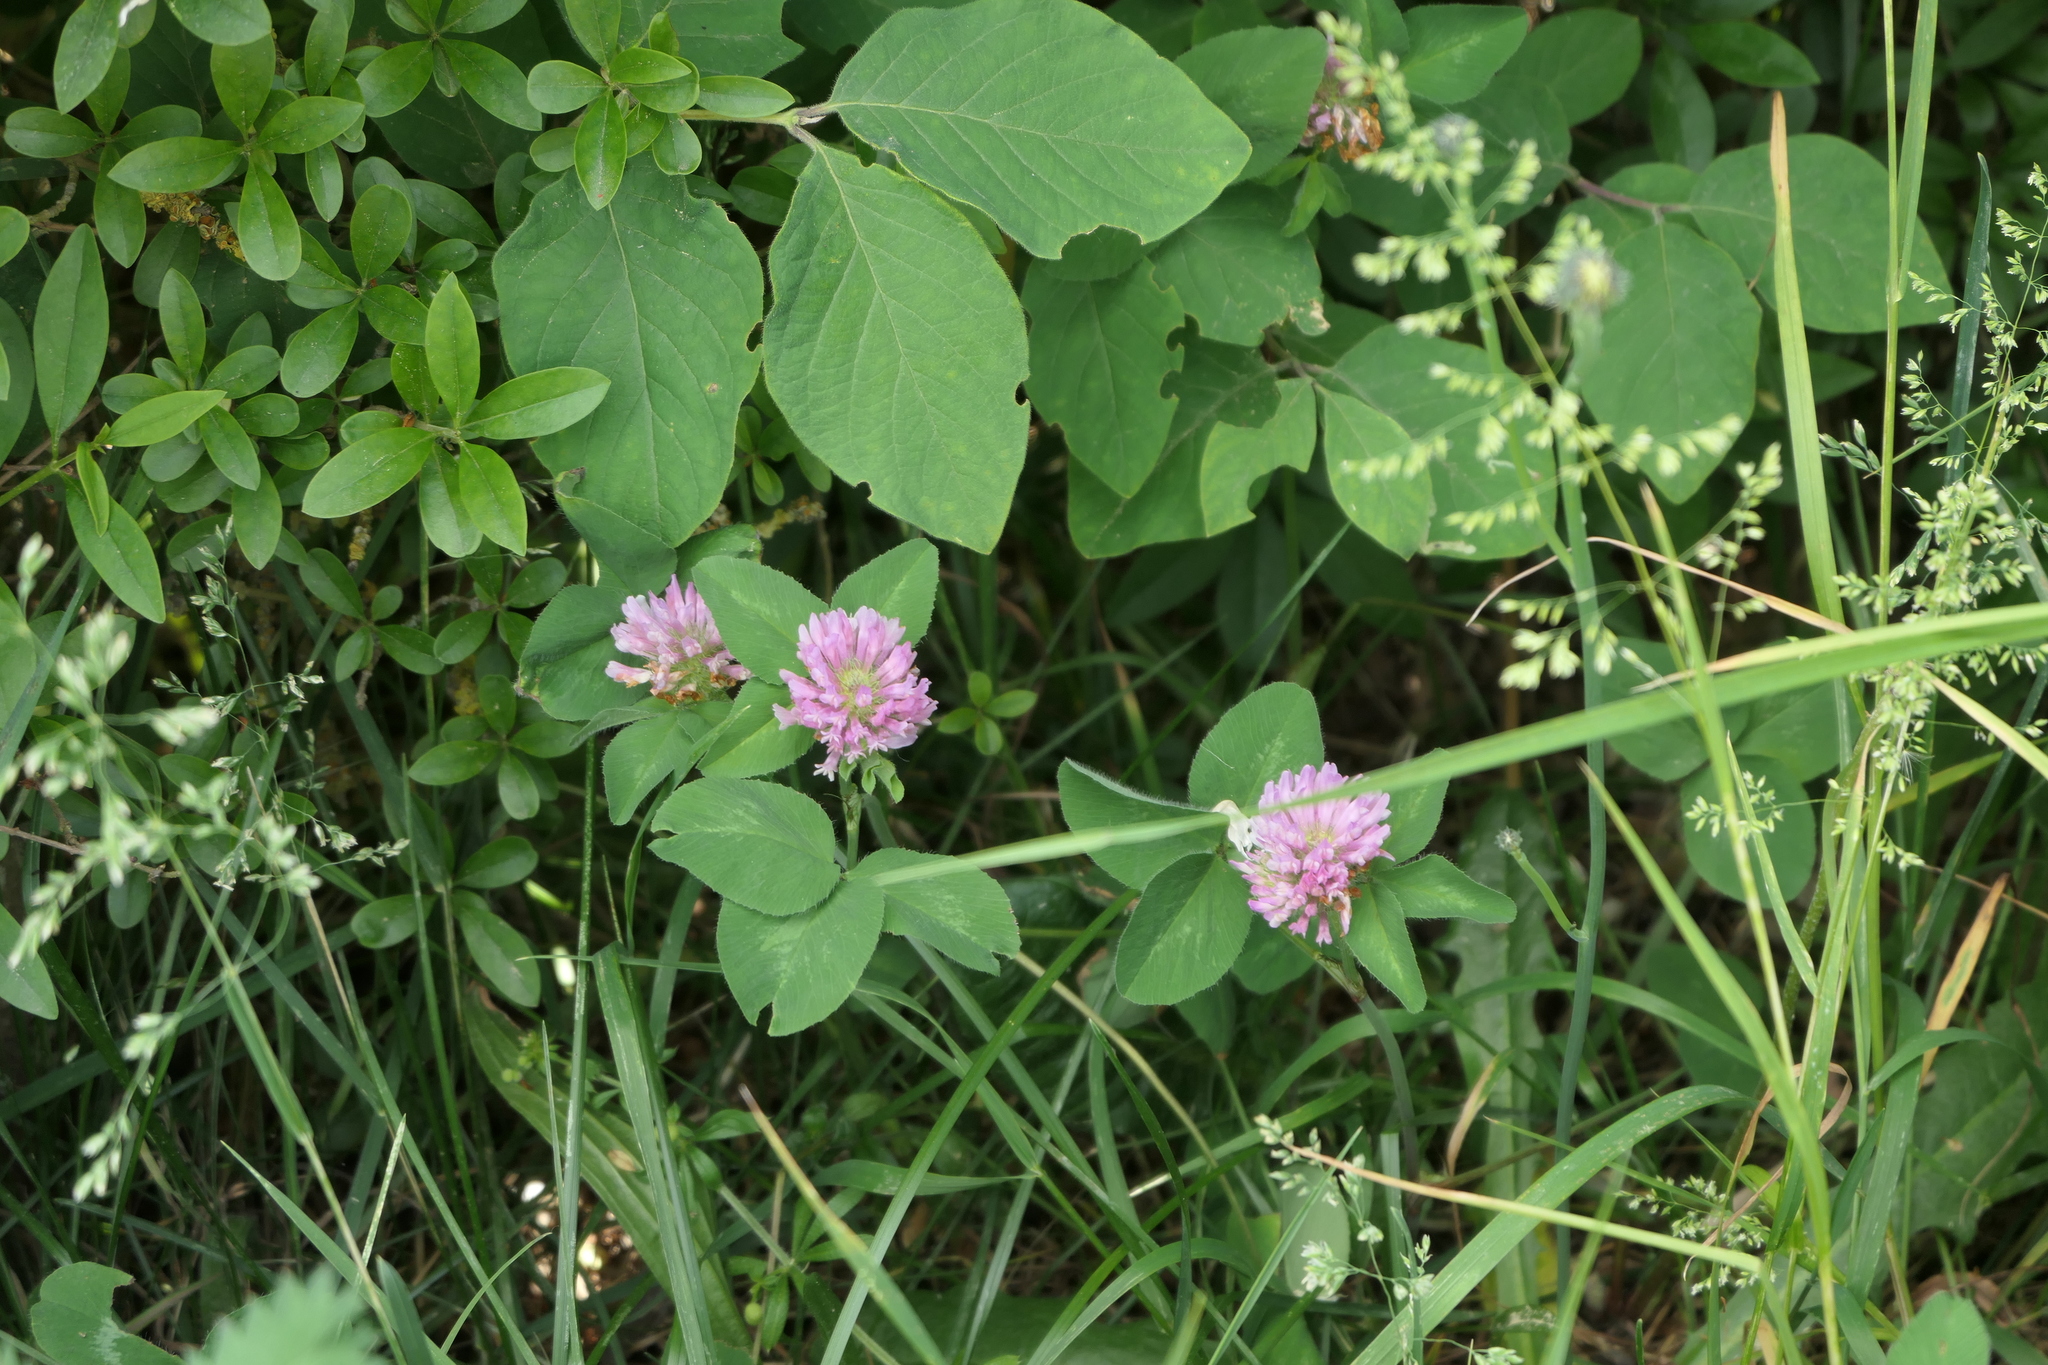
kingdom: Plantae
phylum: Tracheophyta
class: Magnoliopsida
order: Fabales
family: Fabaceae
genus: Trifolium
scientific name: Trifolium pratense
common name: Red clover
